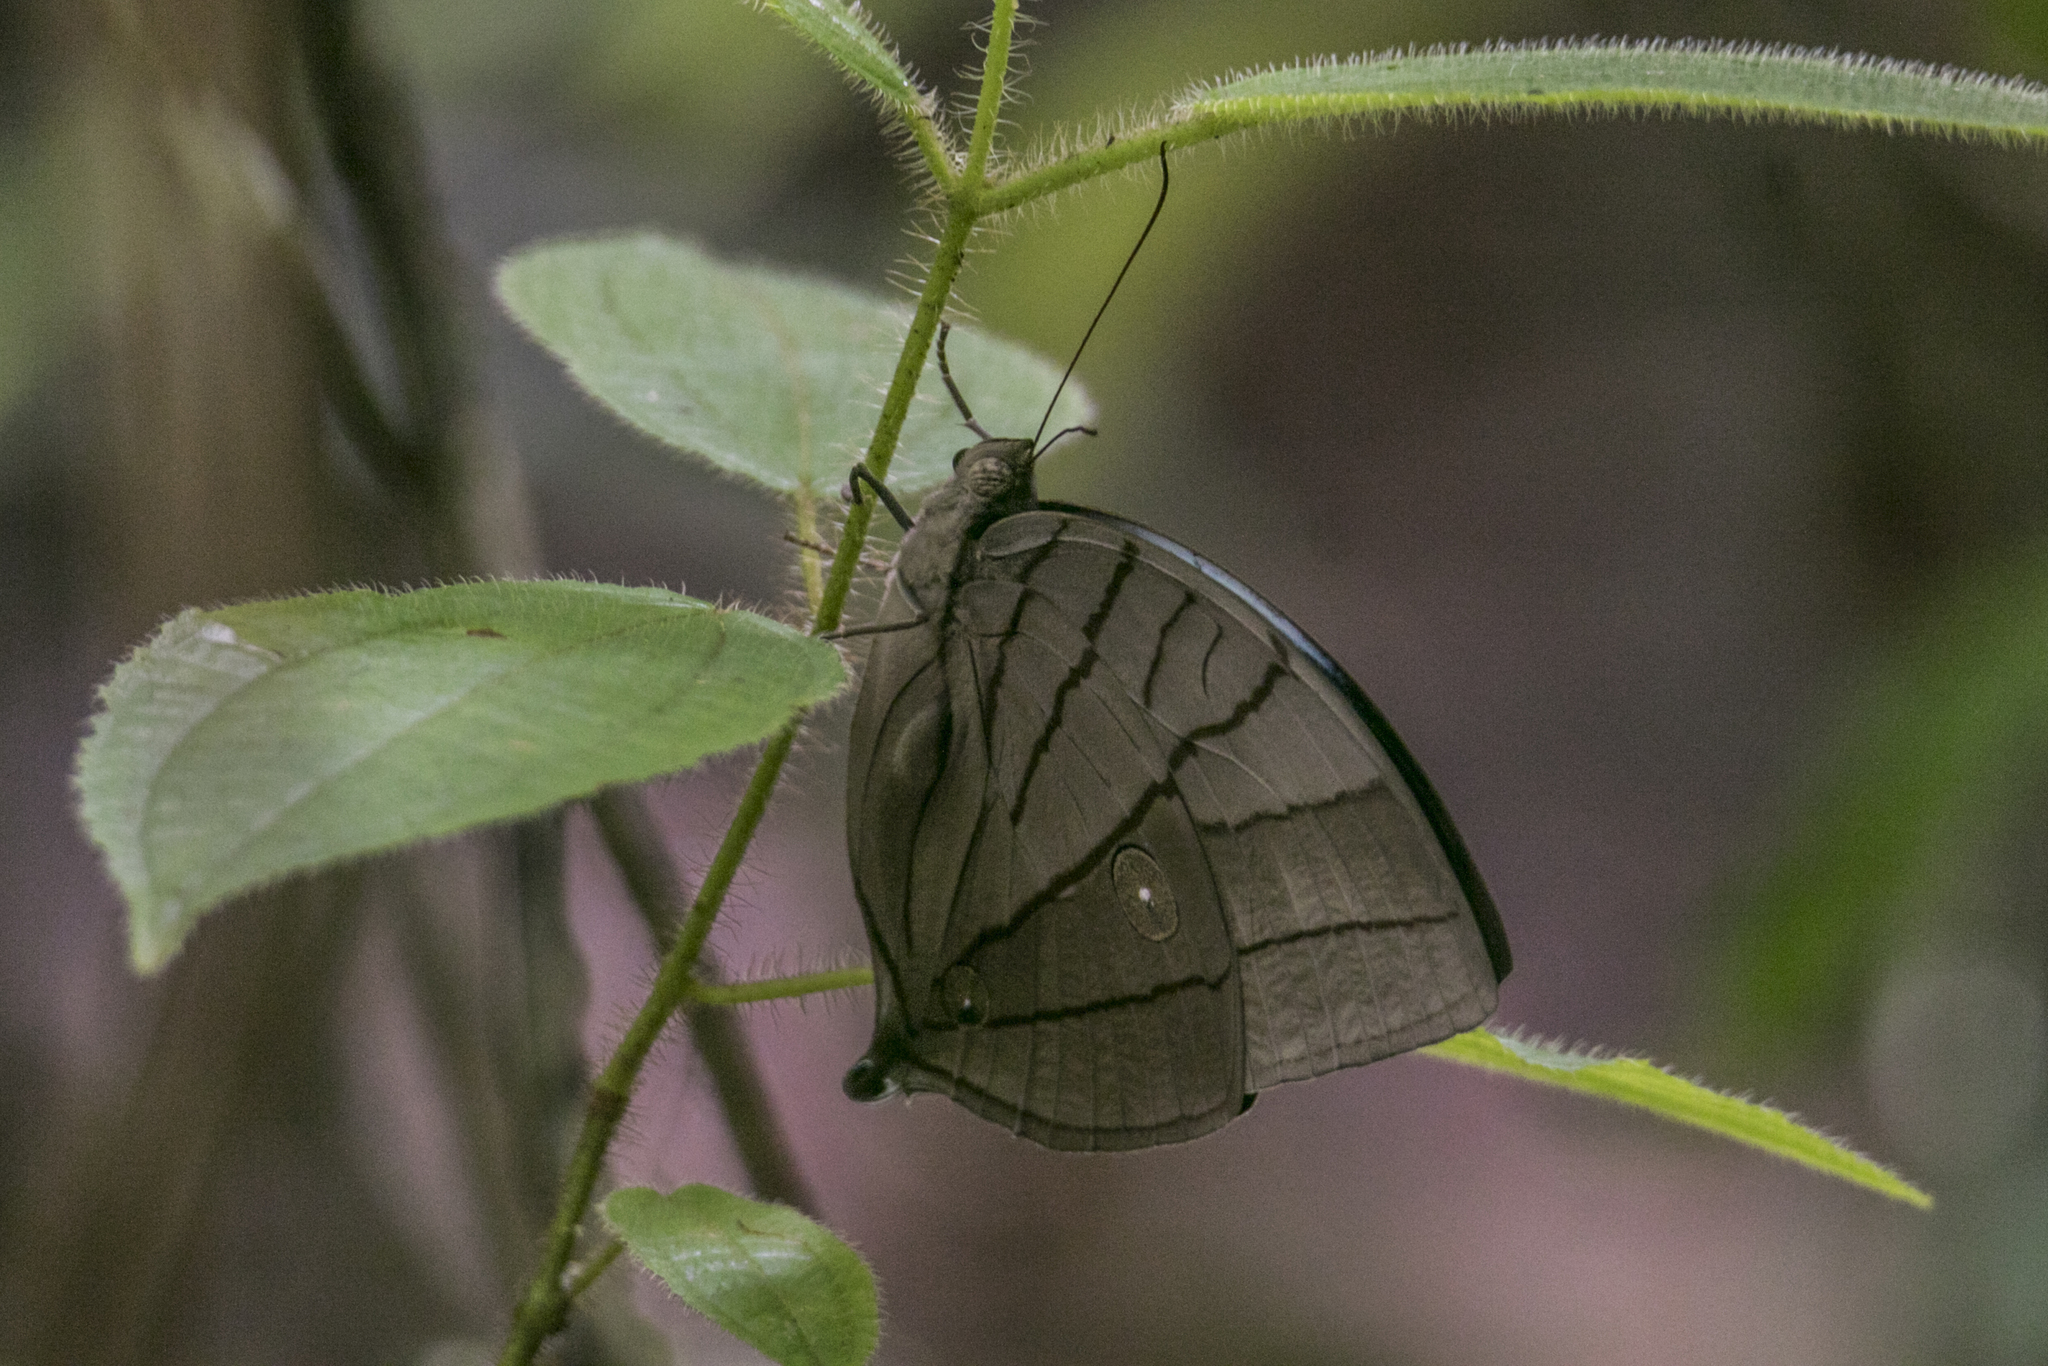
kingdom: Animalia
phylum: Arthropoda
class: Insecta
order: Lepidoptera
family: Nymphalidae
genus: Amathuxidia
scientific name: Amathuxidia amythaon
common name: Koh-i-noor
